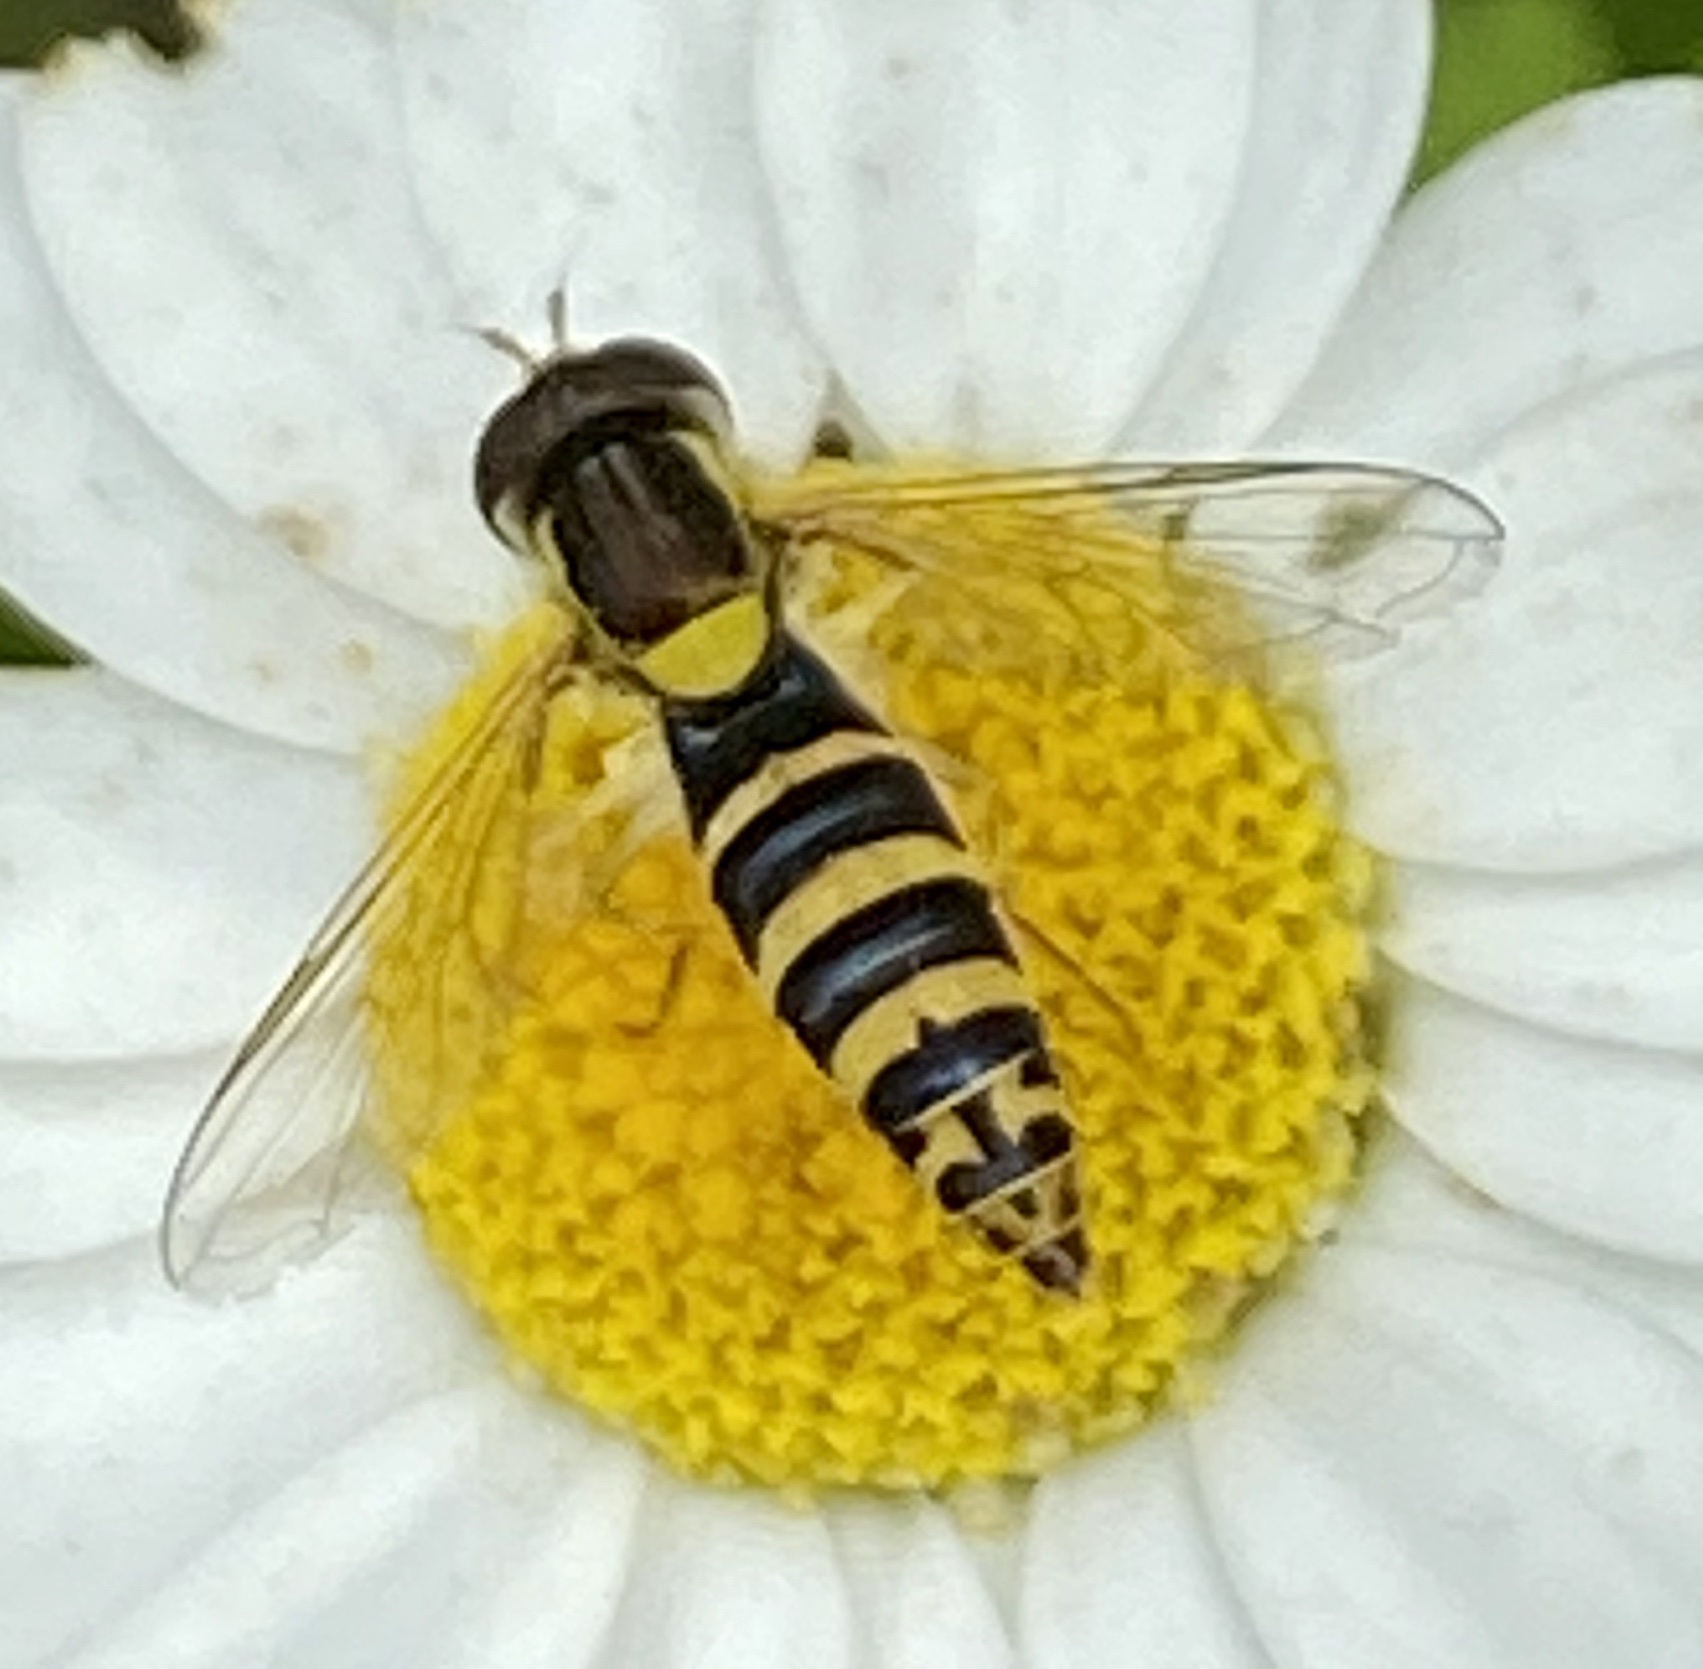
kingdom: Animalia
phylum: Arthropoda
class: Insecta
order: Diptera
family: Syrphidae
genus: Sphaerophoria
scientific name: Sphaerophoria
